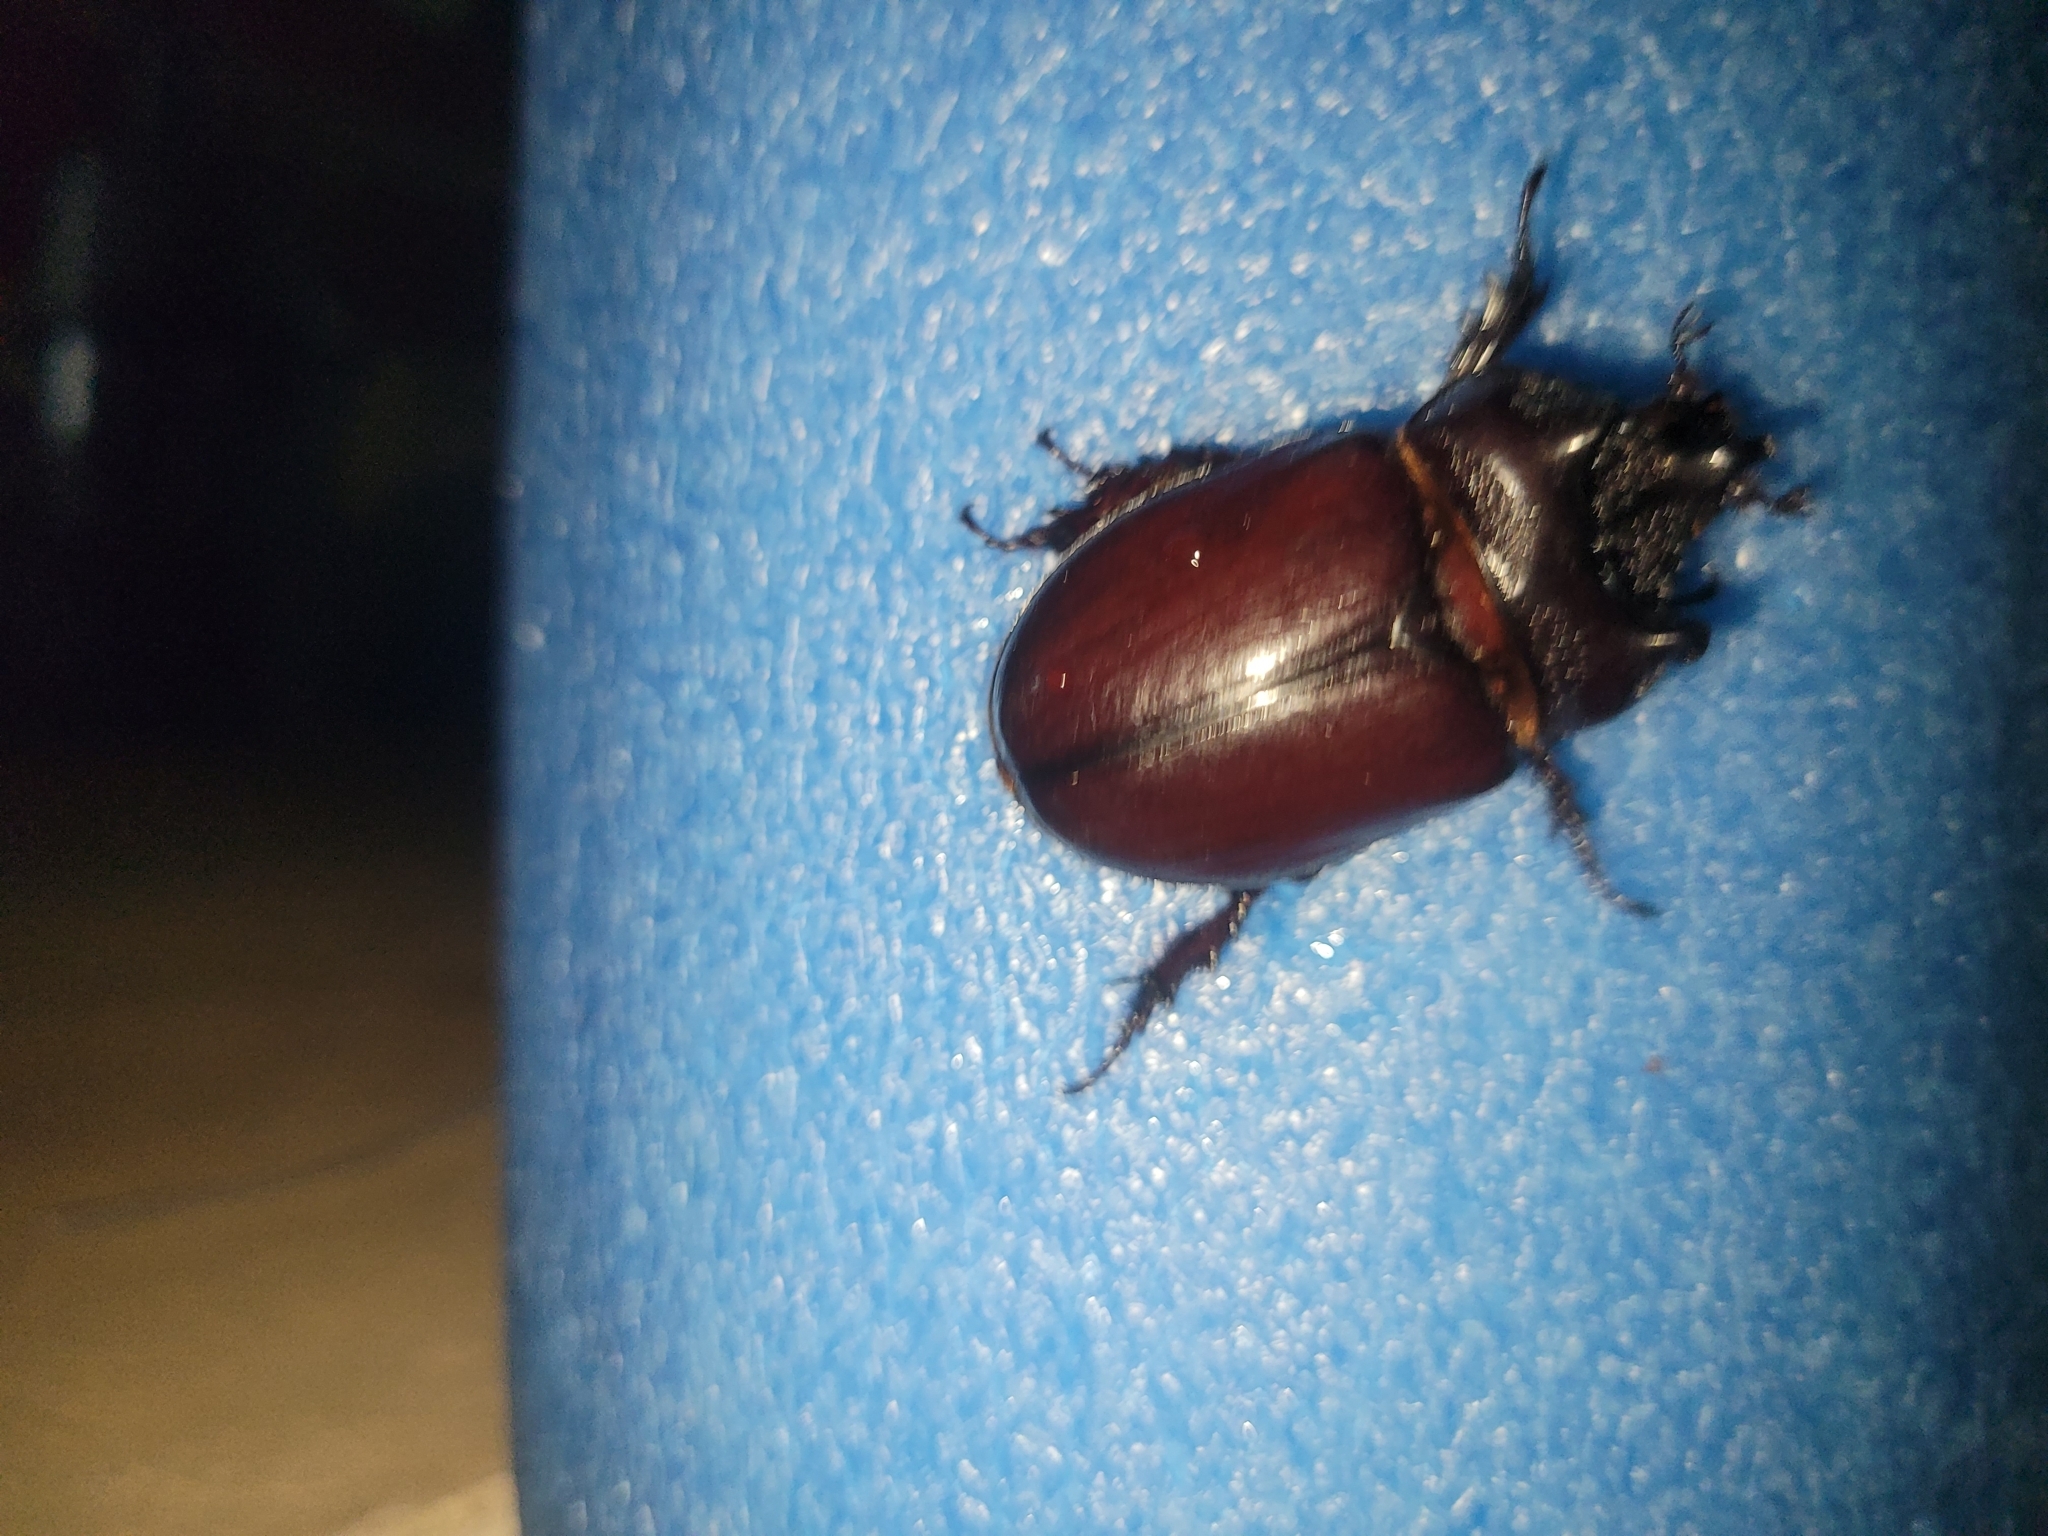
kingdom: Animalia
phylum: Arthropoda
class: Insecta
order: Coleoptera
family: Scarabaeidae
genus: Strategus
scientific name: Strategus aloeus
